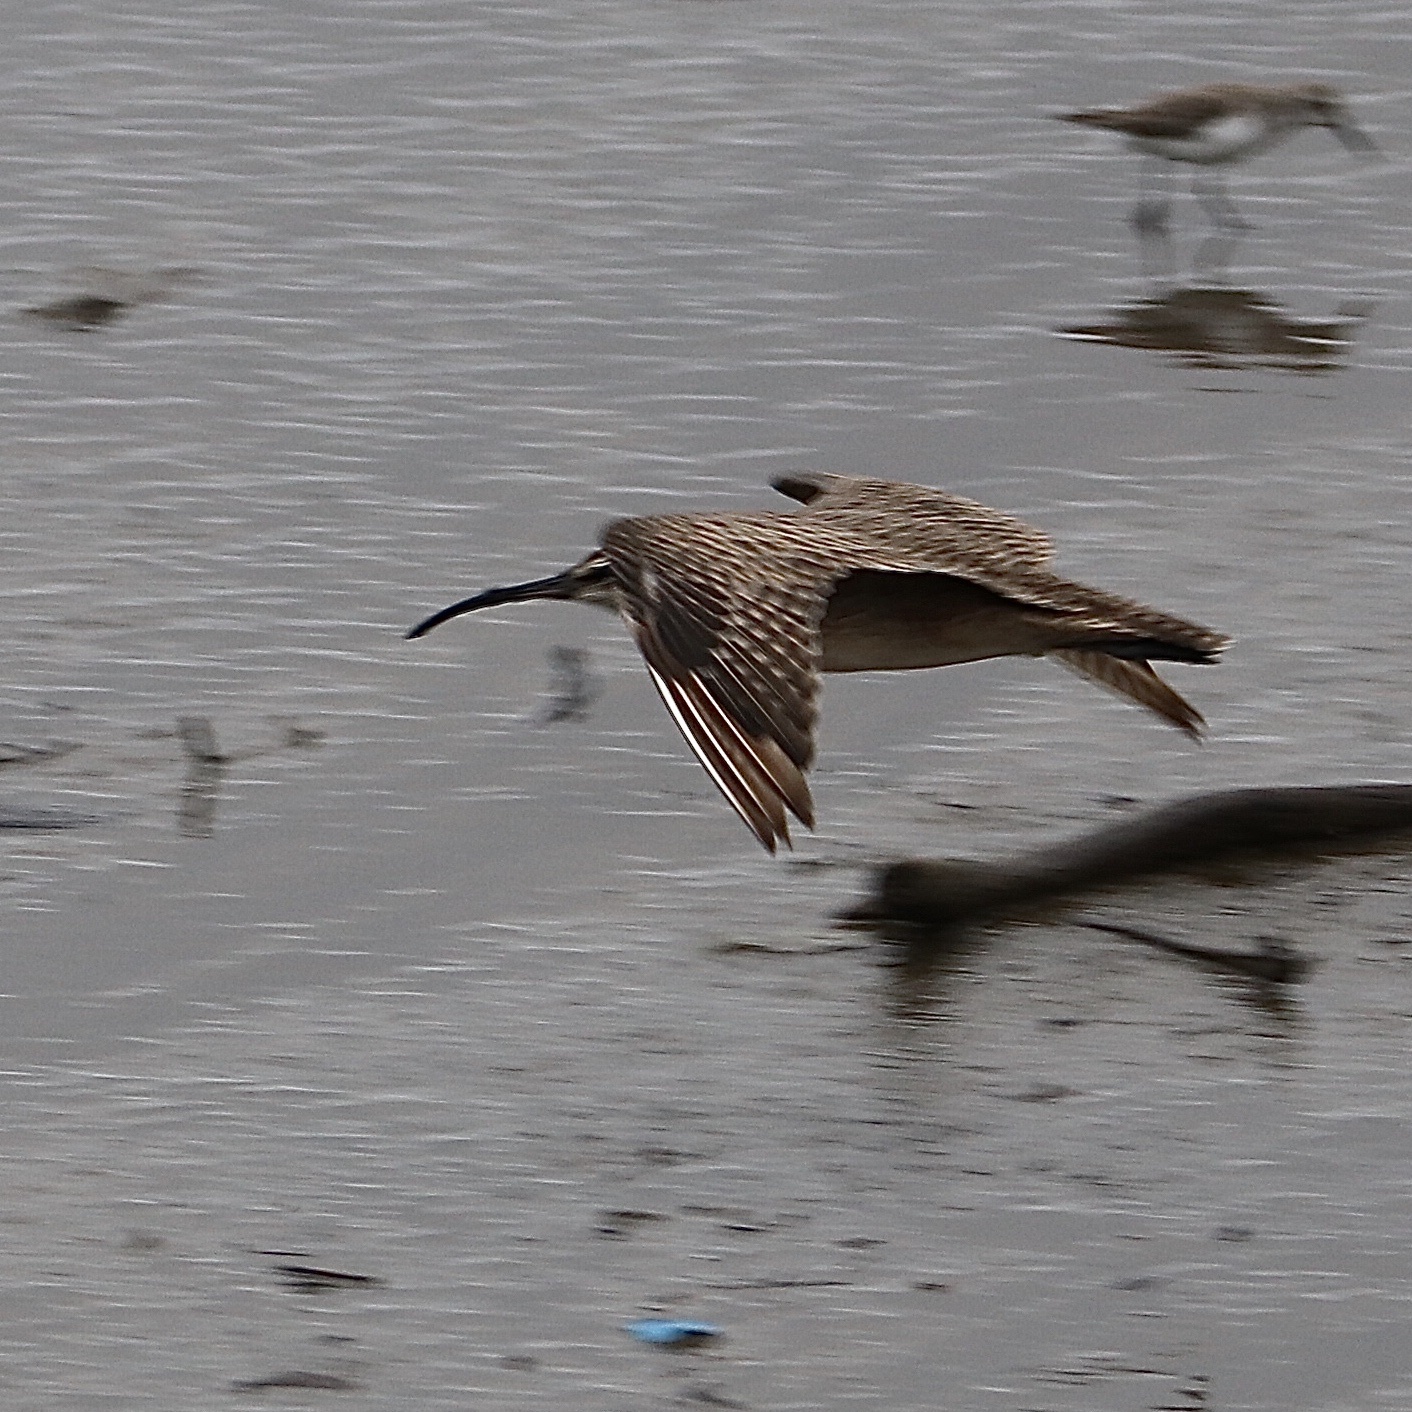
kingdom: Animalia
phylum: Chordata
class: Aves
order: Charadriiformes
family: Scolopacidae
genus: Numenius
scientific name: Numenius phaeopus
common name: Whimbrel
